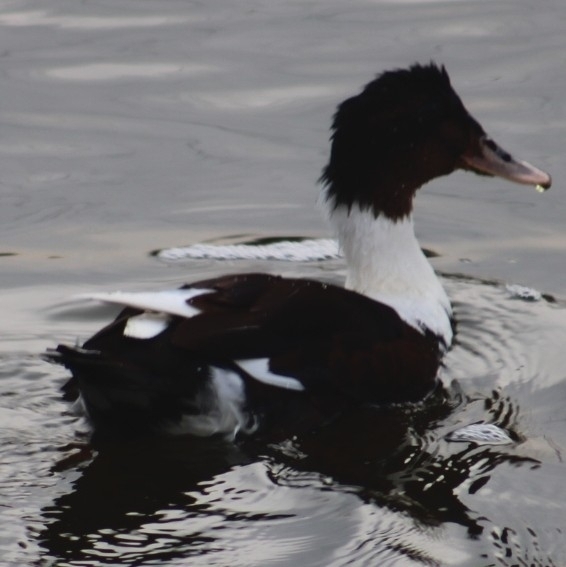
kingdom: Animalia
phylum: Chordata
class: Aves
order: Anseriformes
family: Anatidae
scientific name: Anatidae
